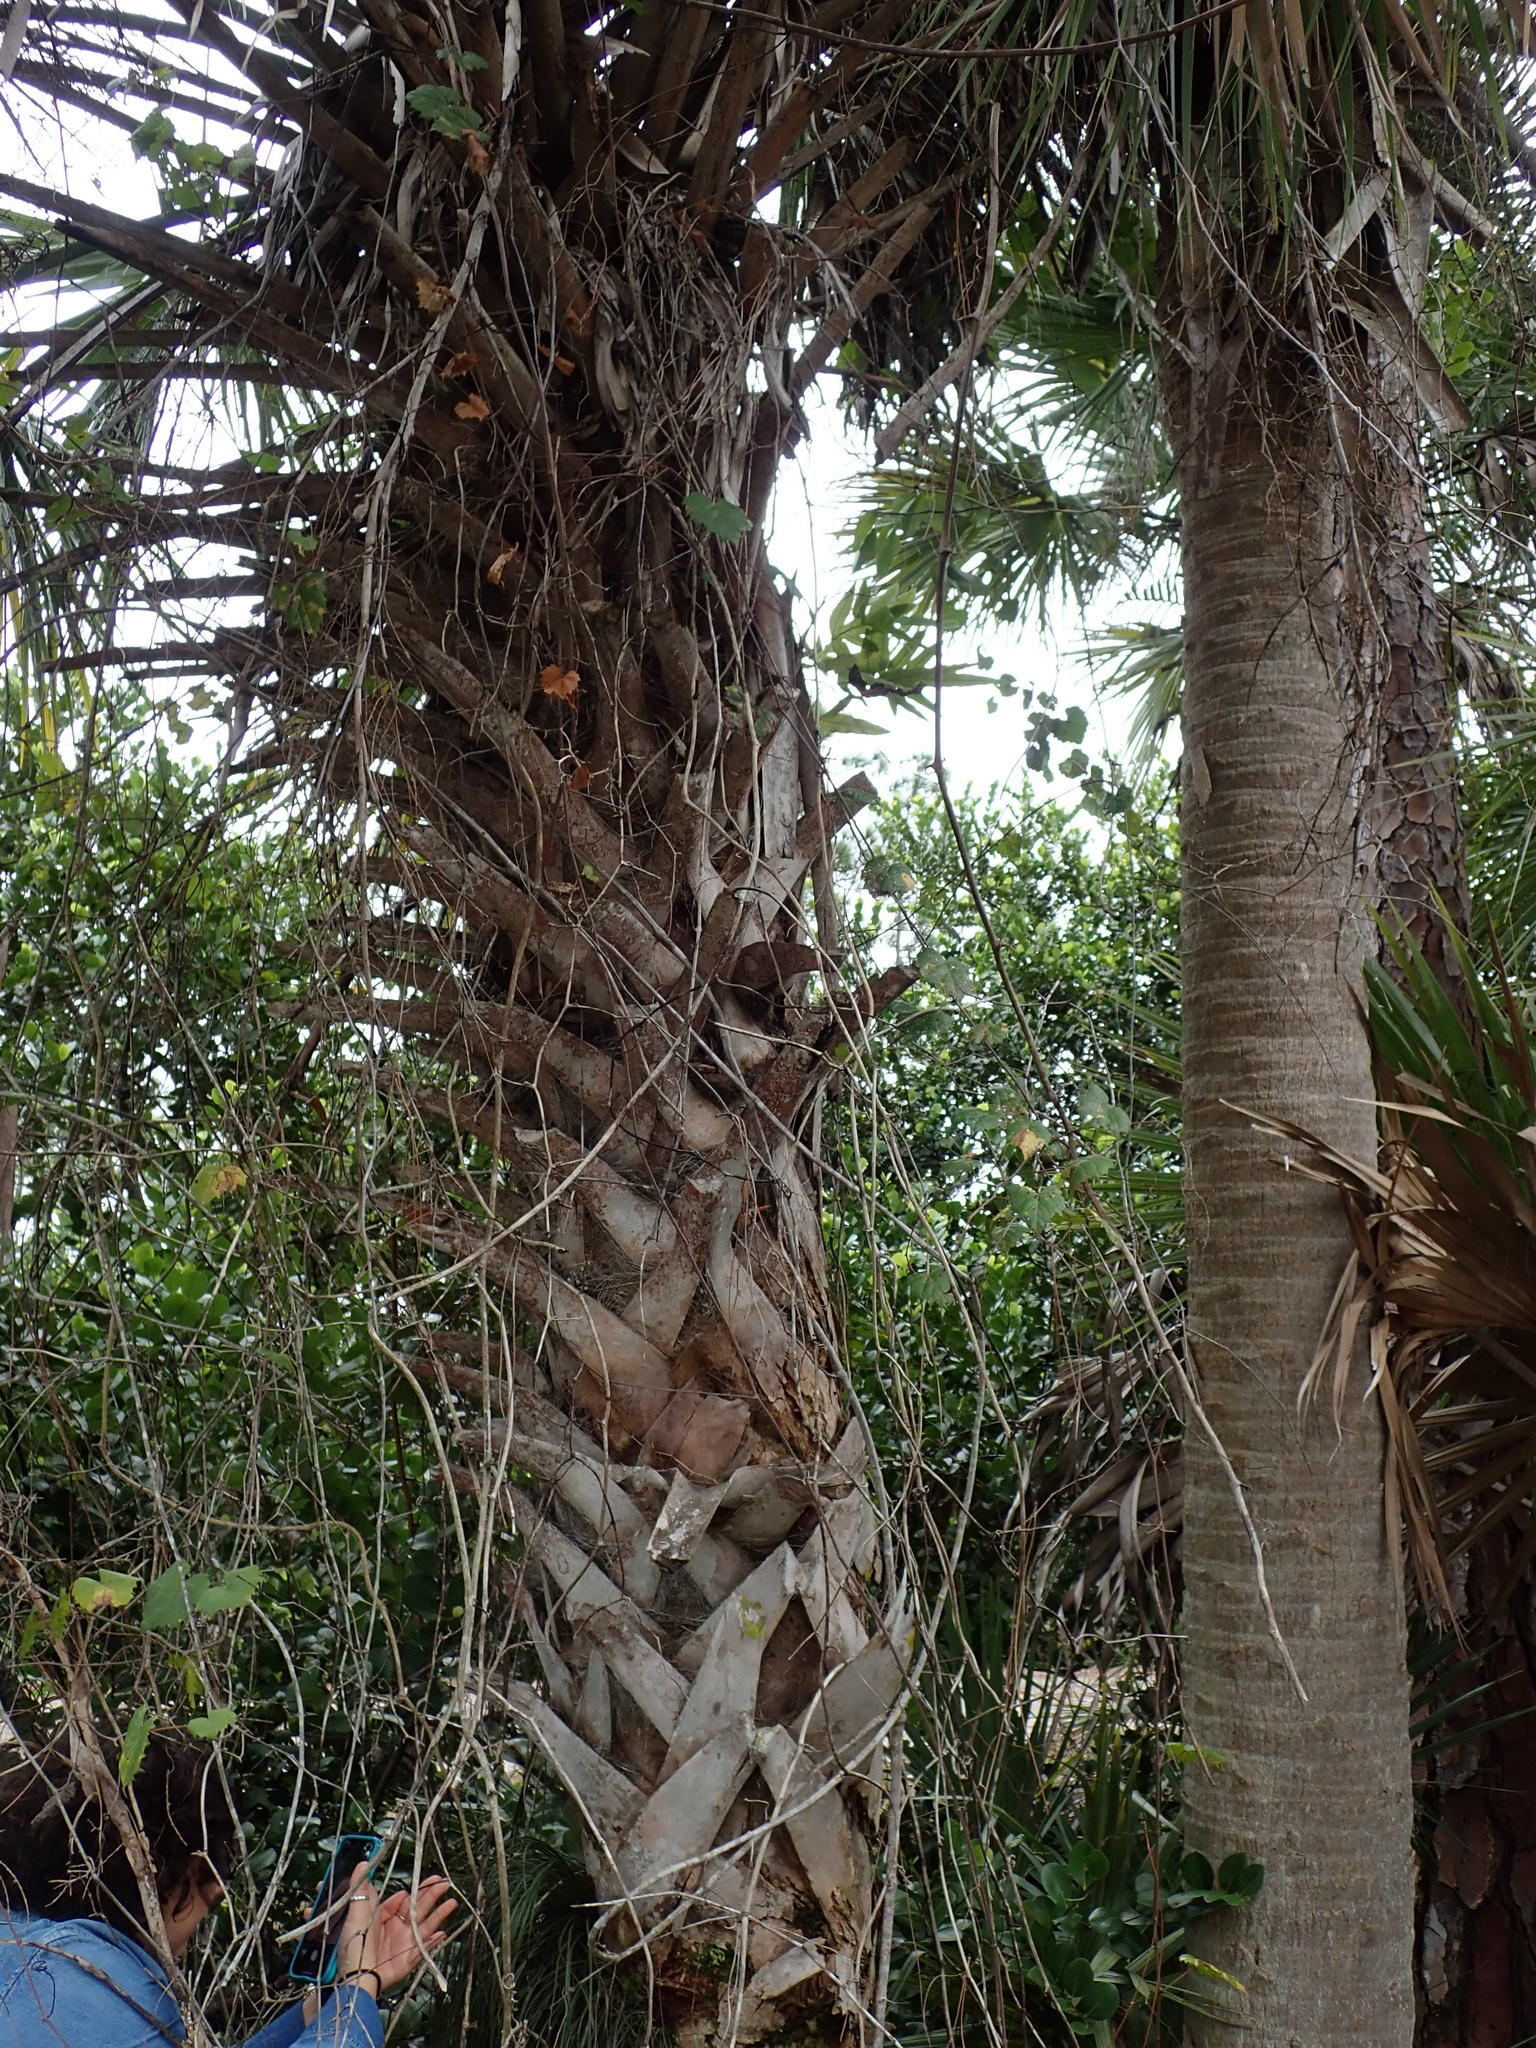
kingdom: Plantae
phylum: Tracheophyta
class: Liliopsida
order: Arecales
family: Arecaceae
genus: Sabal
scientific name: Sabal palmetto
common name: Blue palmetto
